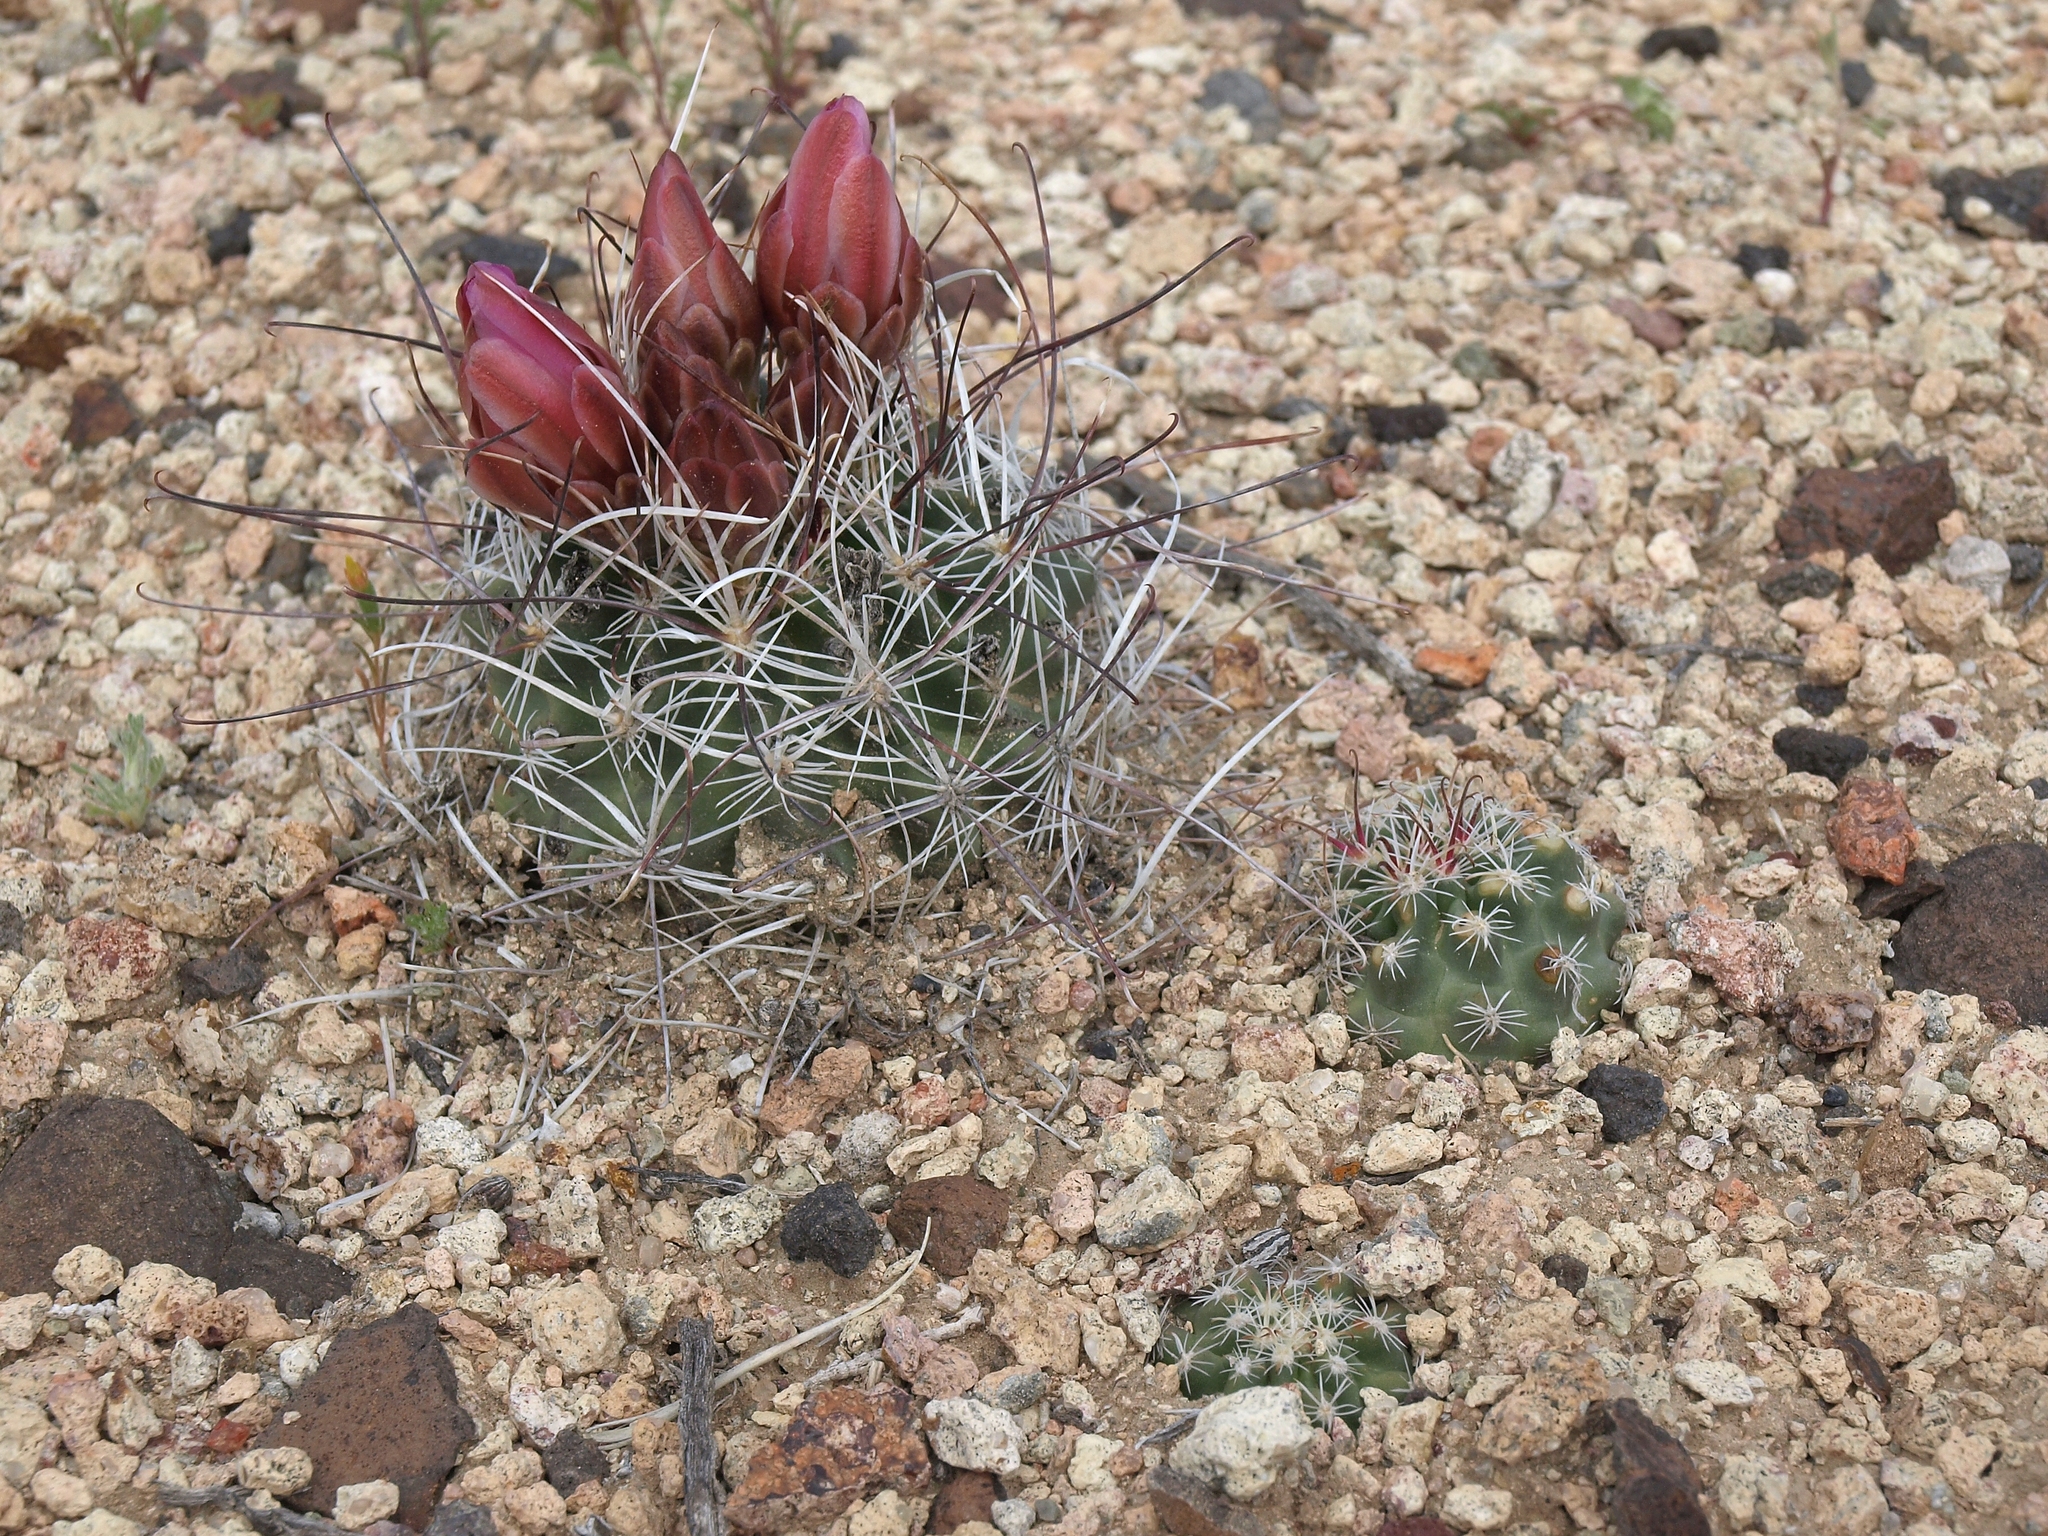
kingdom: Plantae
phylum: Tracheophyta
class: Magnoliopsida
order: Caryophyllales
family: Cactaceae
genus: Sclerocactus
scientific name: Sclerocactus nyensis
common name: Nye county fish-hook cactus
